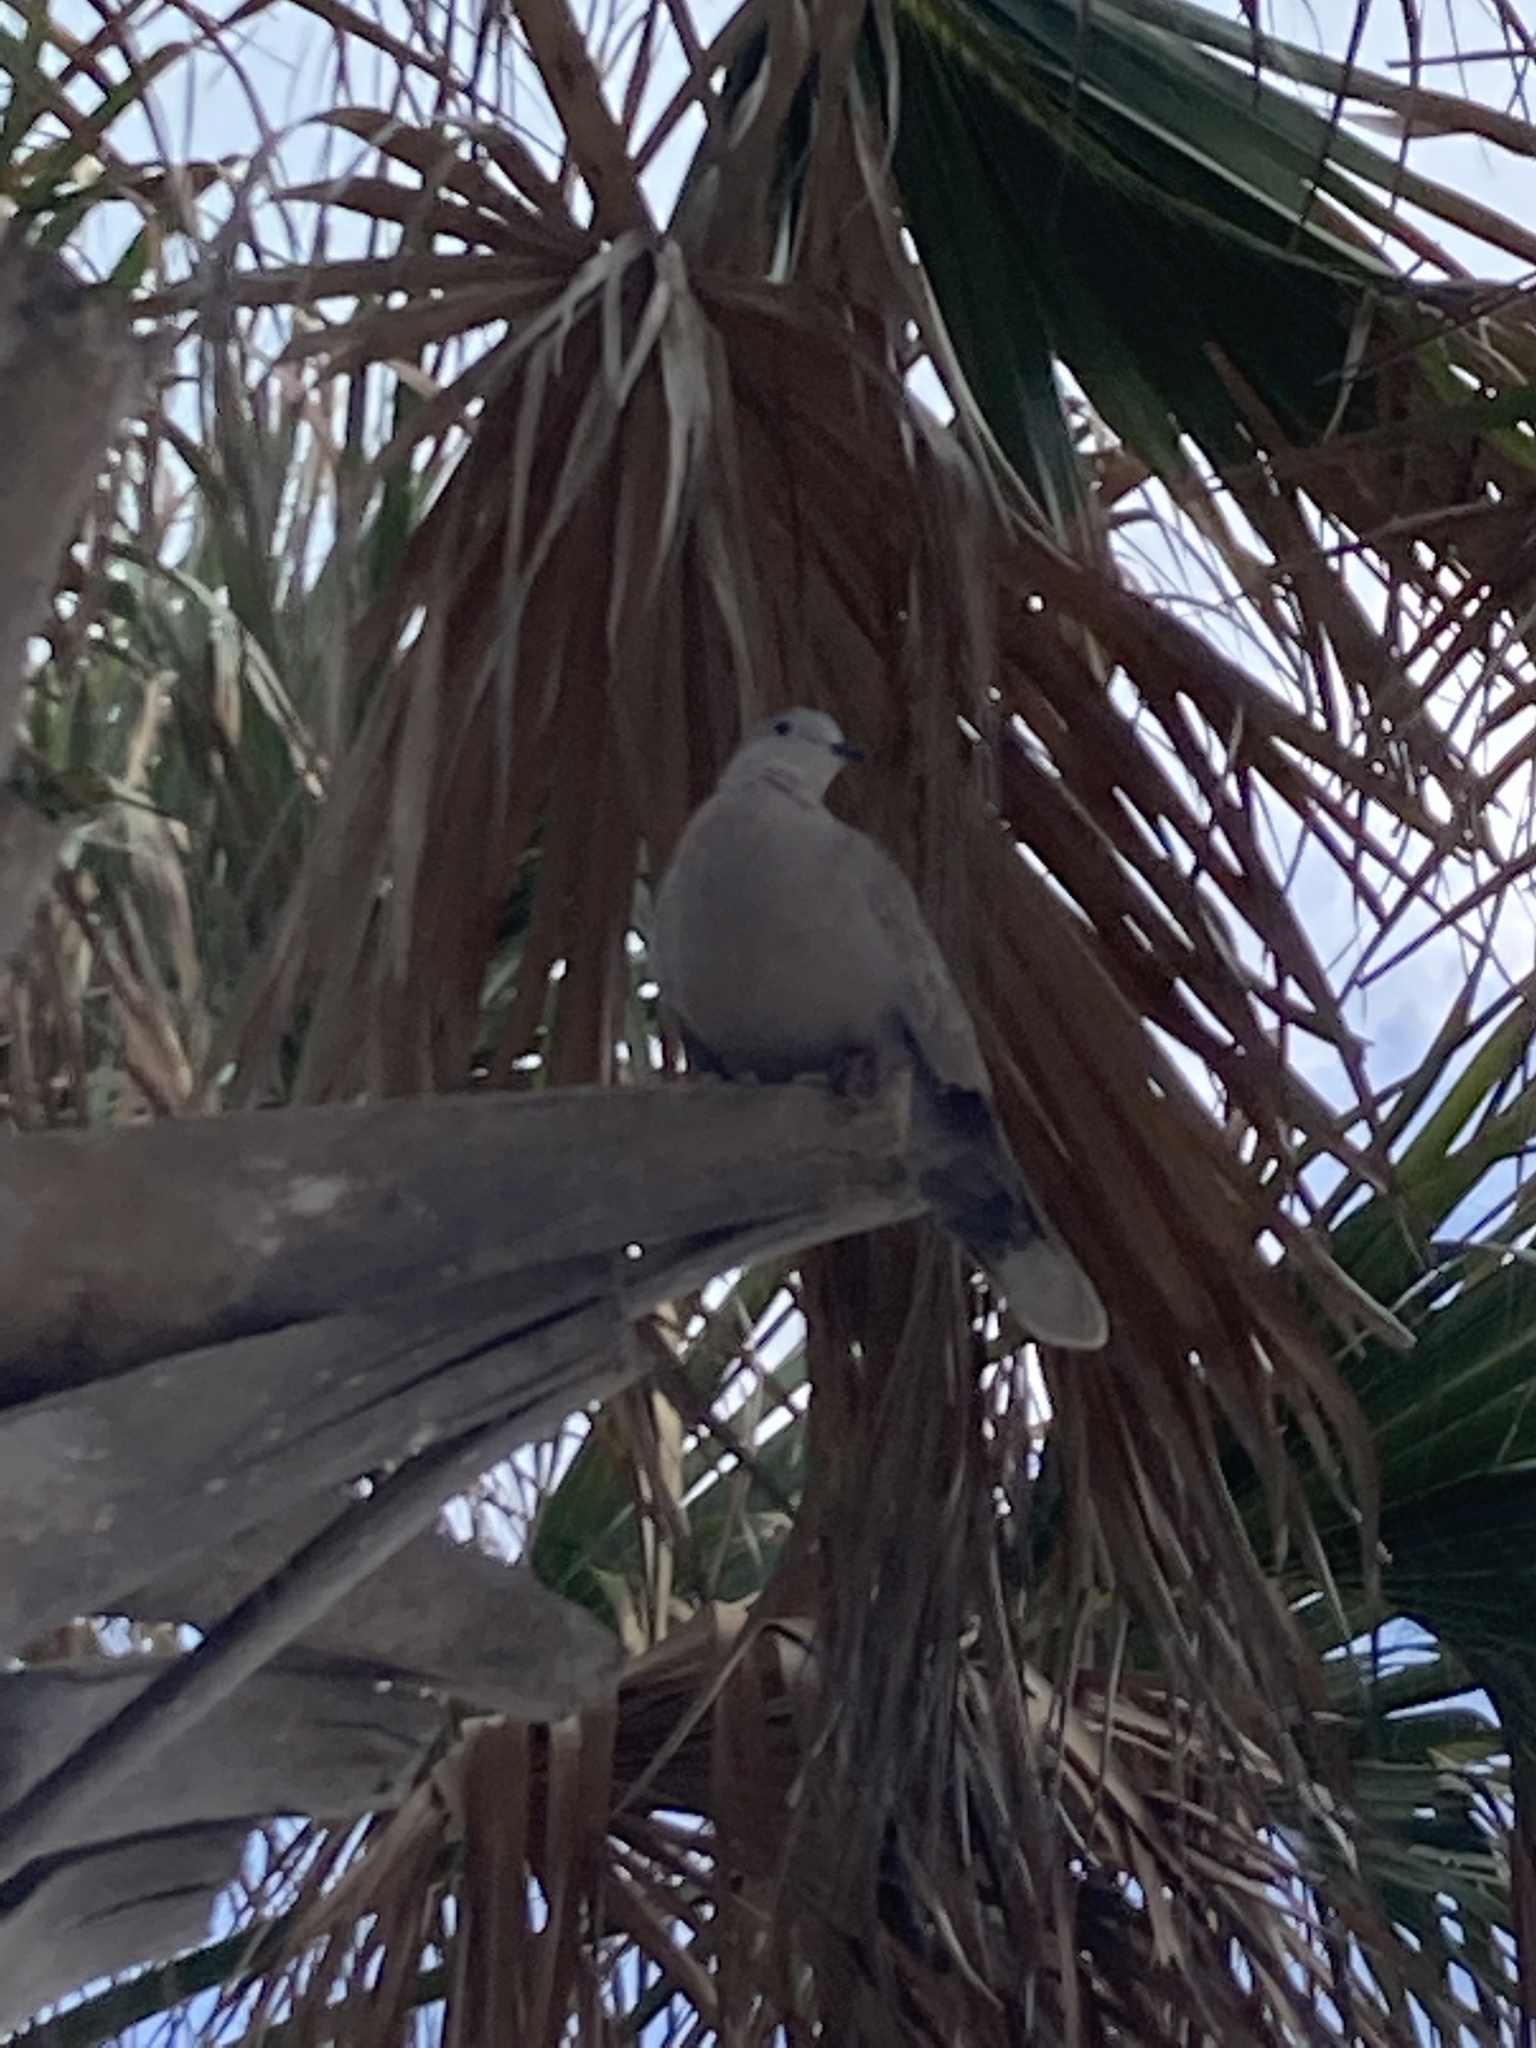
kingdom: Animalia
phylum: Chordata
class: Aves
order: Columbiformes
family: Columbidae
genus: Streptopelia
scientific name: Streptopelia decaocto
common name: Eurasian collared dove
